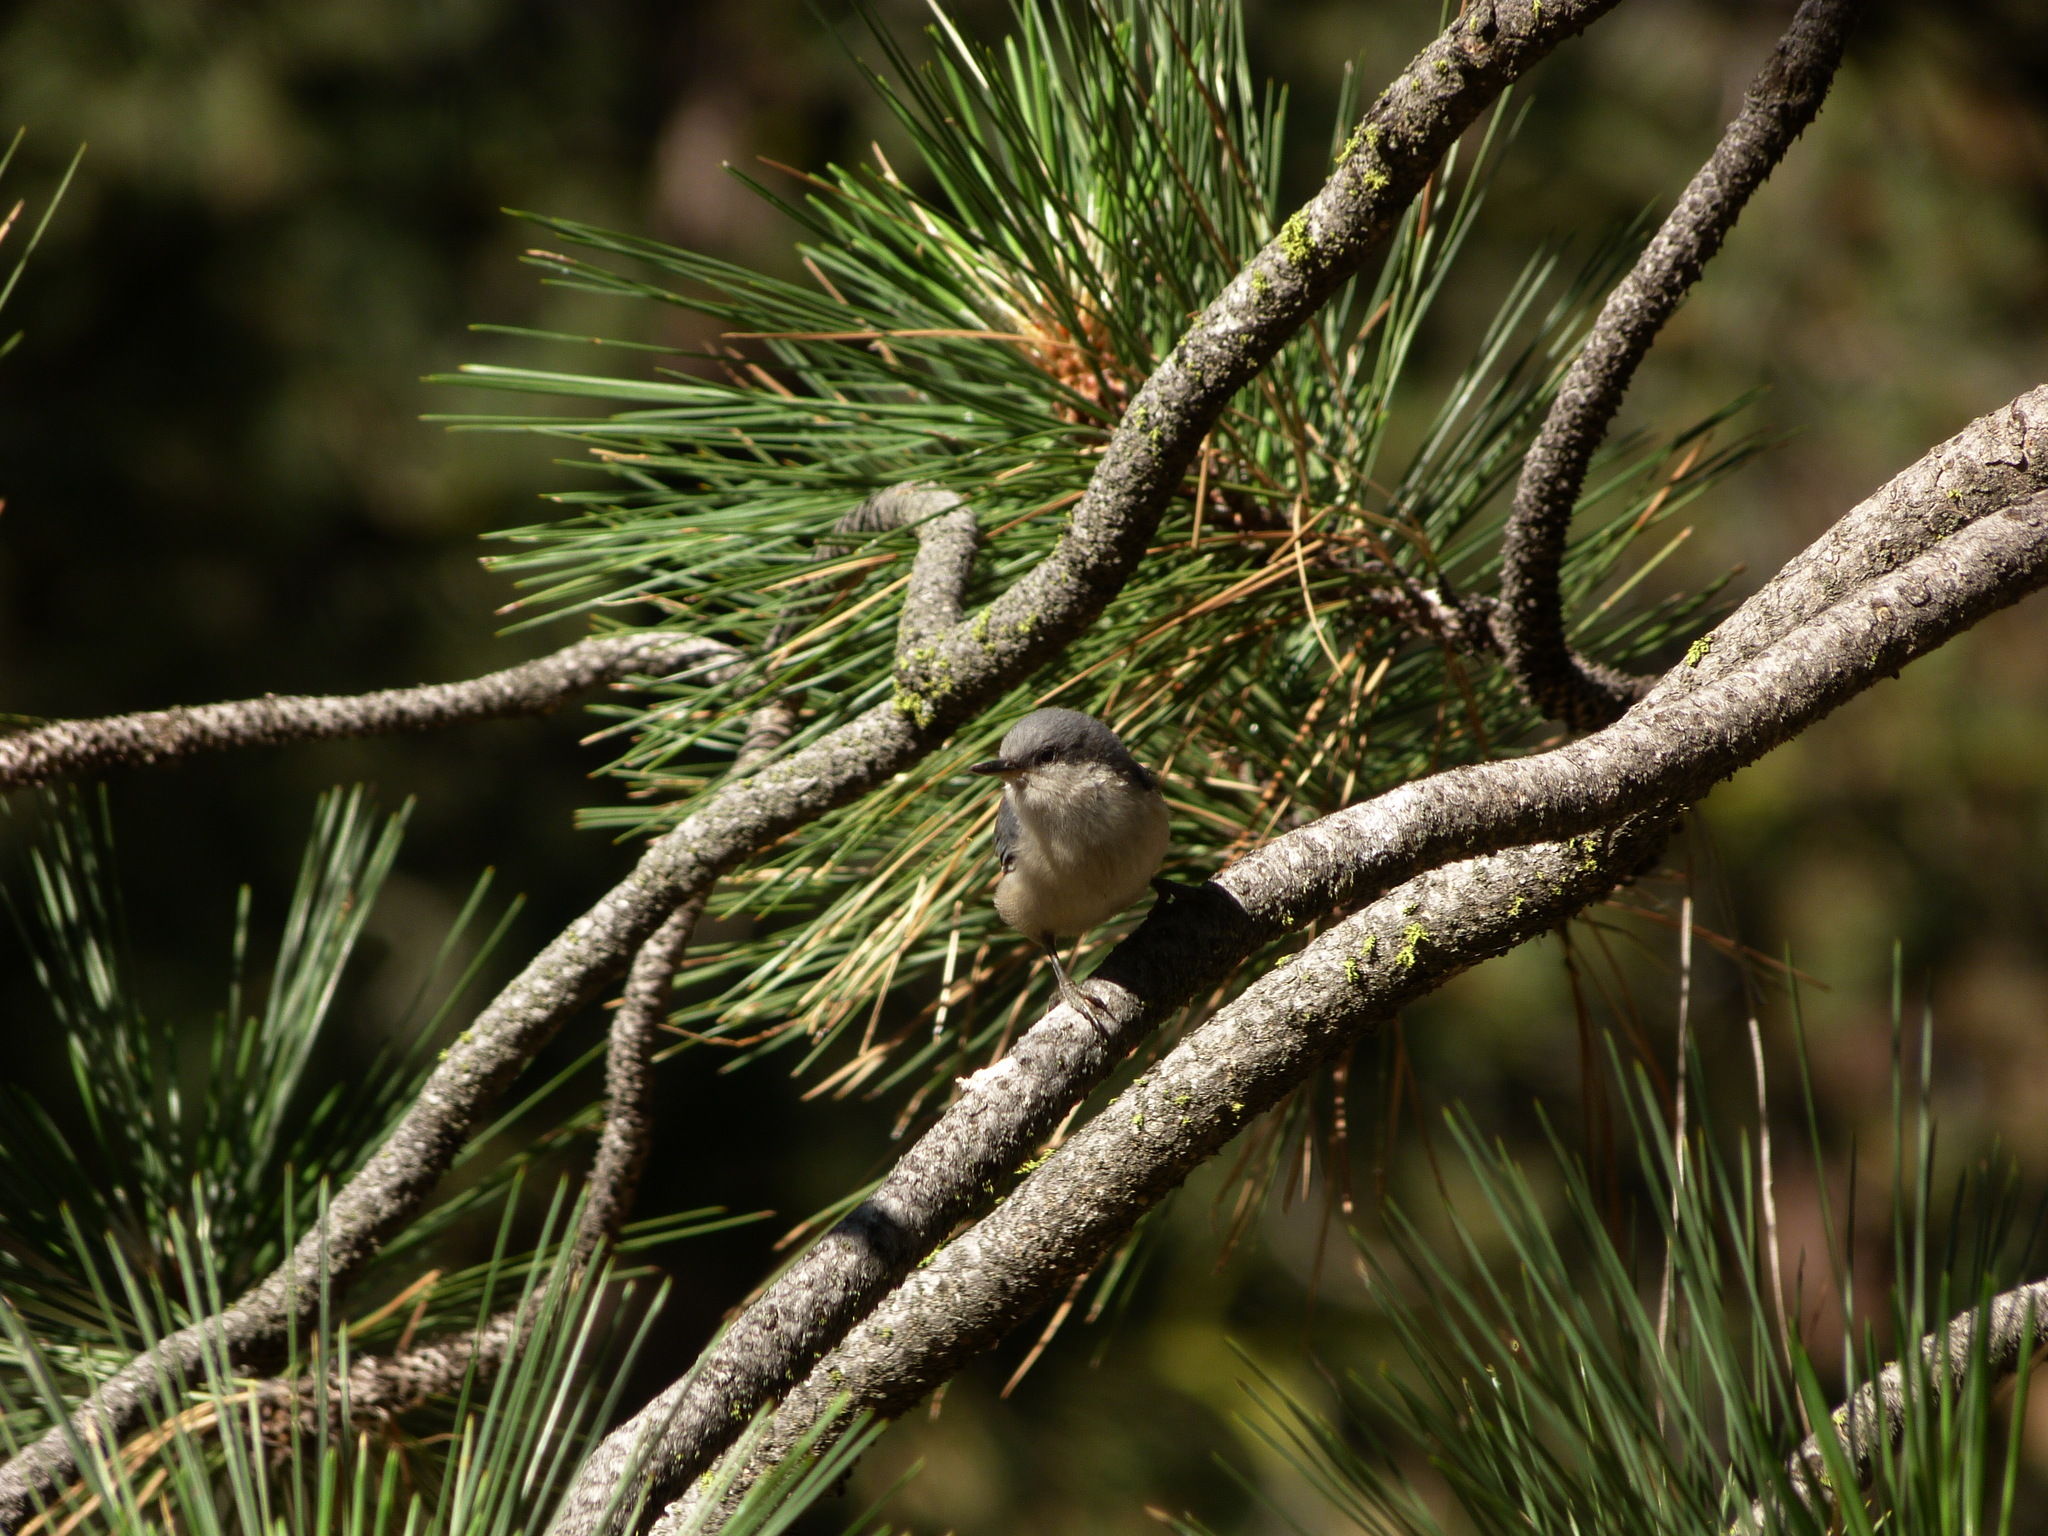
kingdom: Animalia
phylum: Chordata
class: Aves
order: Passeriformes
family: Sittidae
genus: Sitta
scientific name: Sitta pygmaea
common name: Pygmy nuthatch
